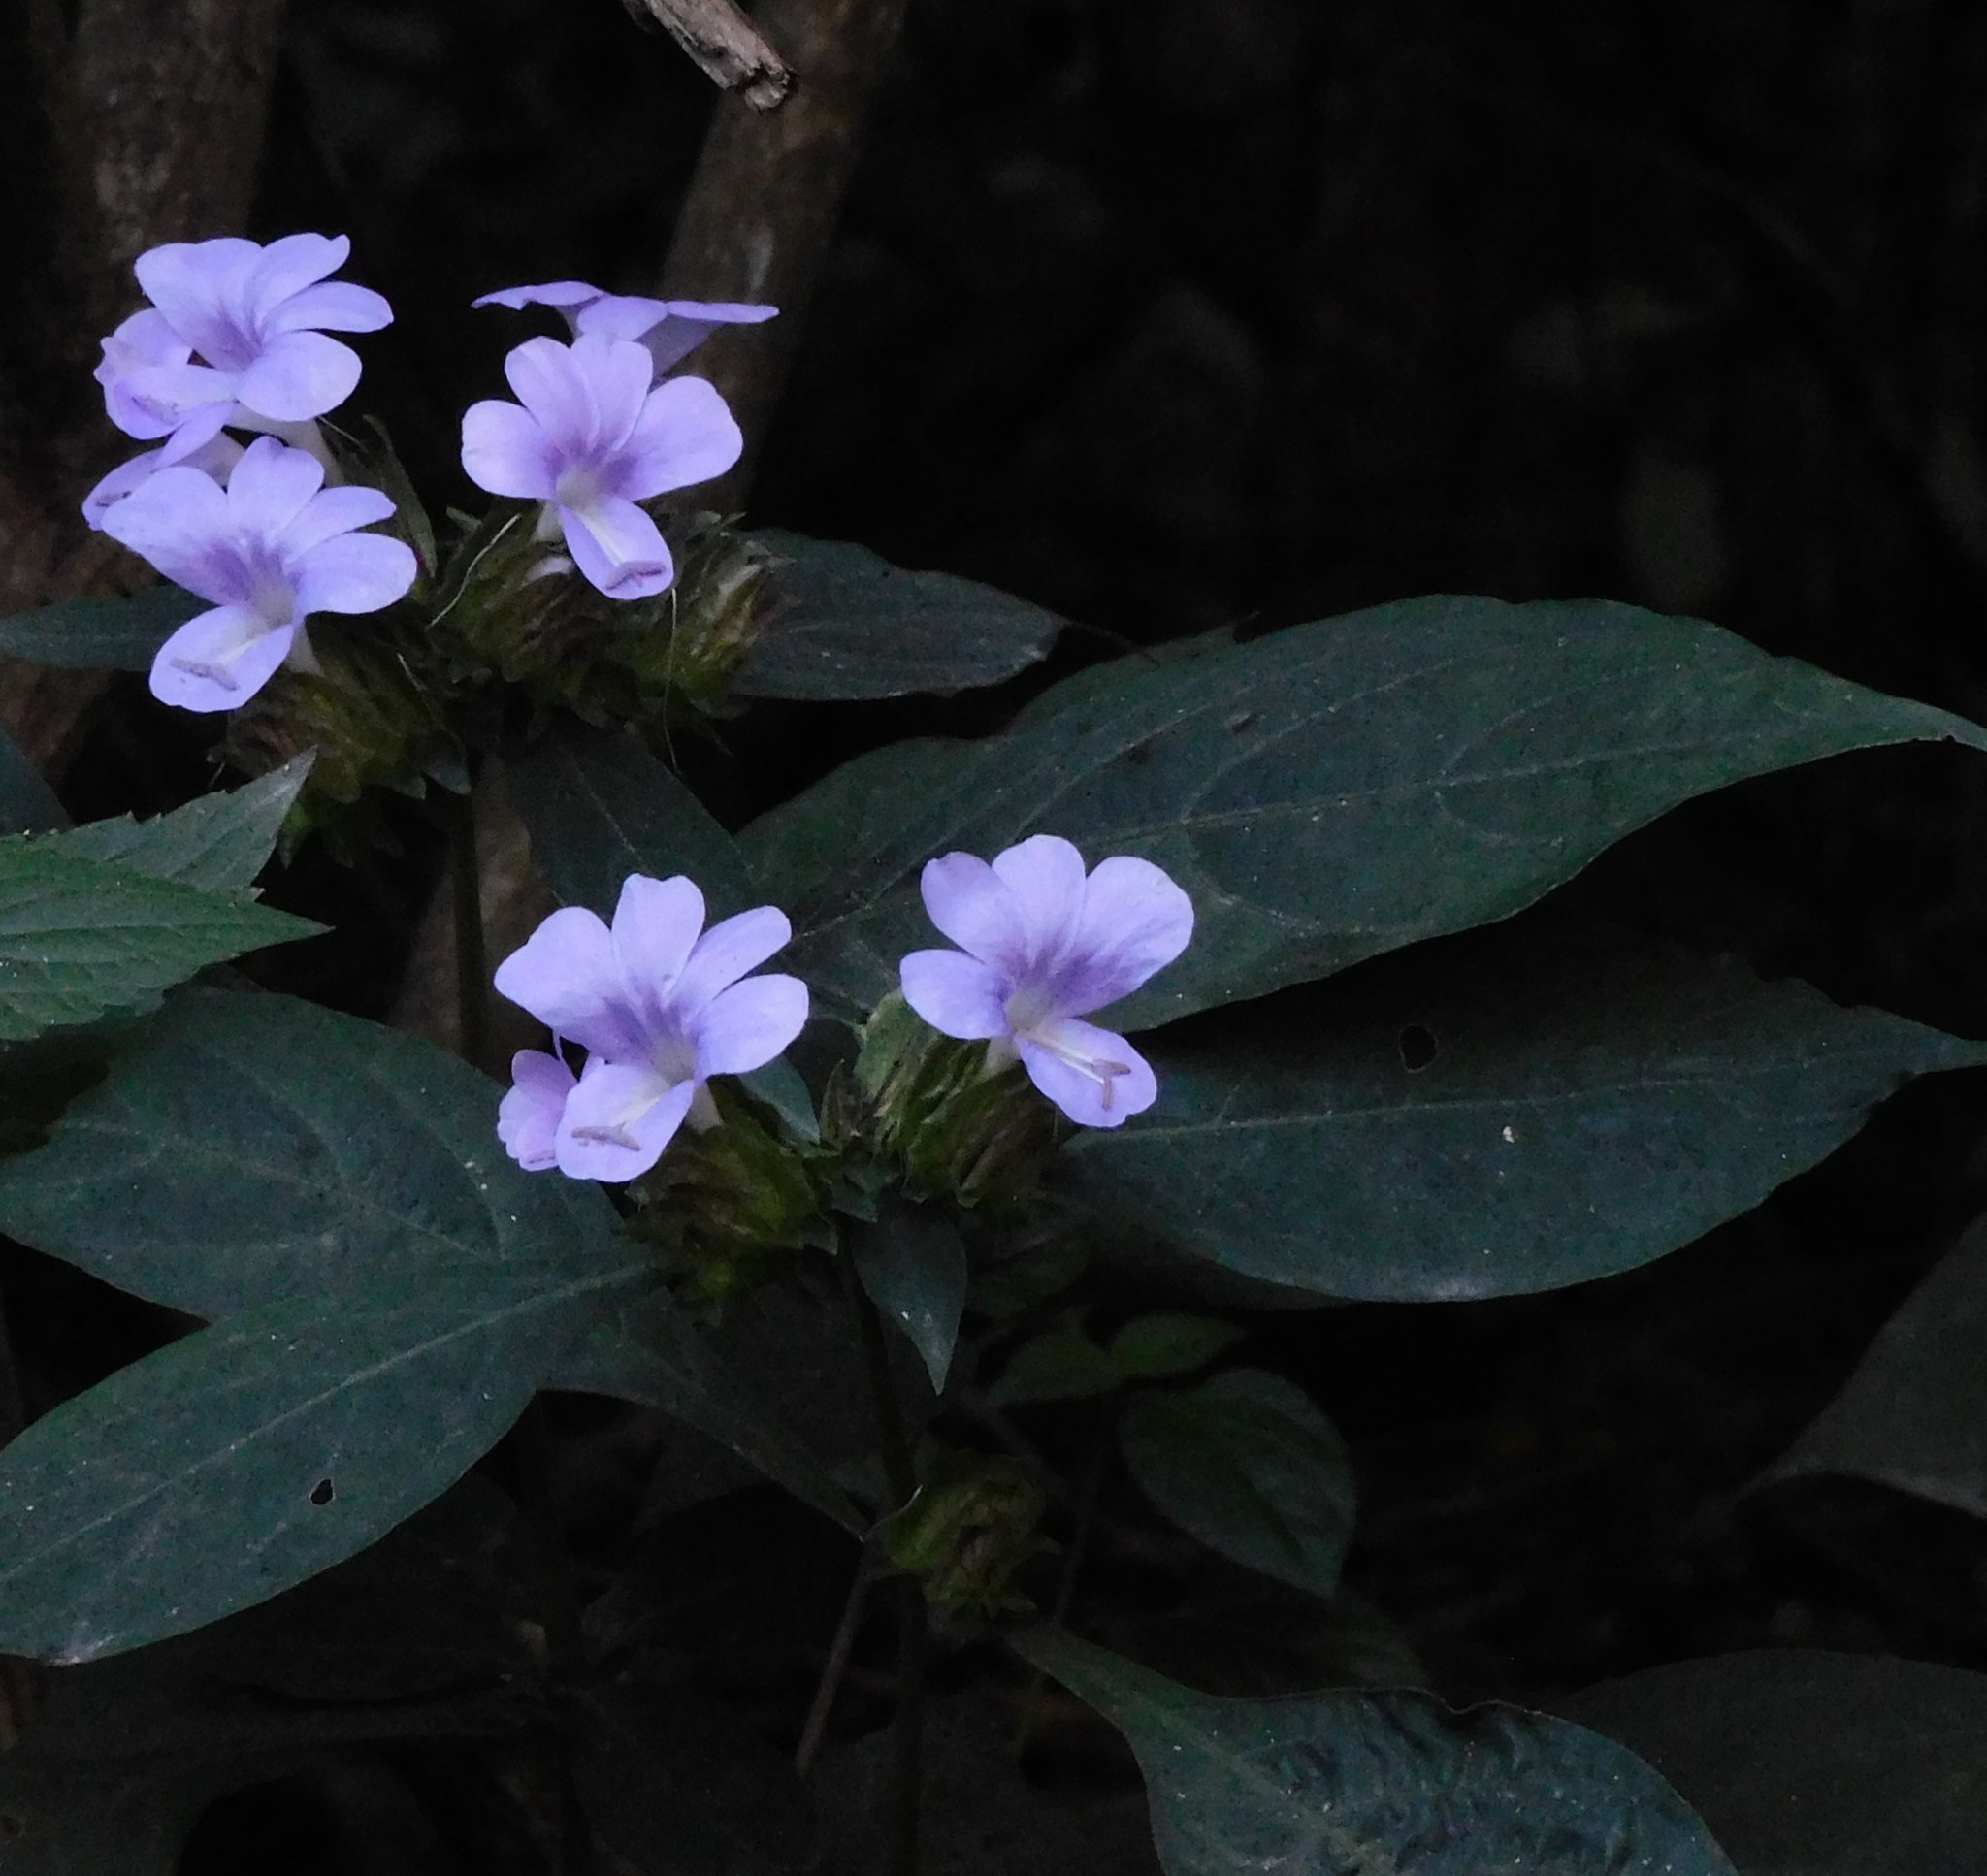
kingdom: Plantae
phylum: Tracheophyta
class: Magnoliopsida
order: Lamiales
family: Acanthaceae
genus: Barleria
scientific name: Barleria cristata
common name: Crested philippine violet
